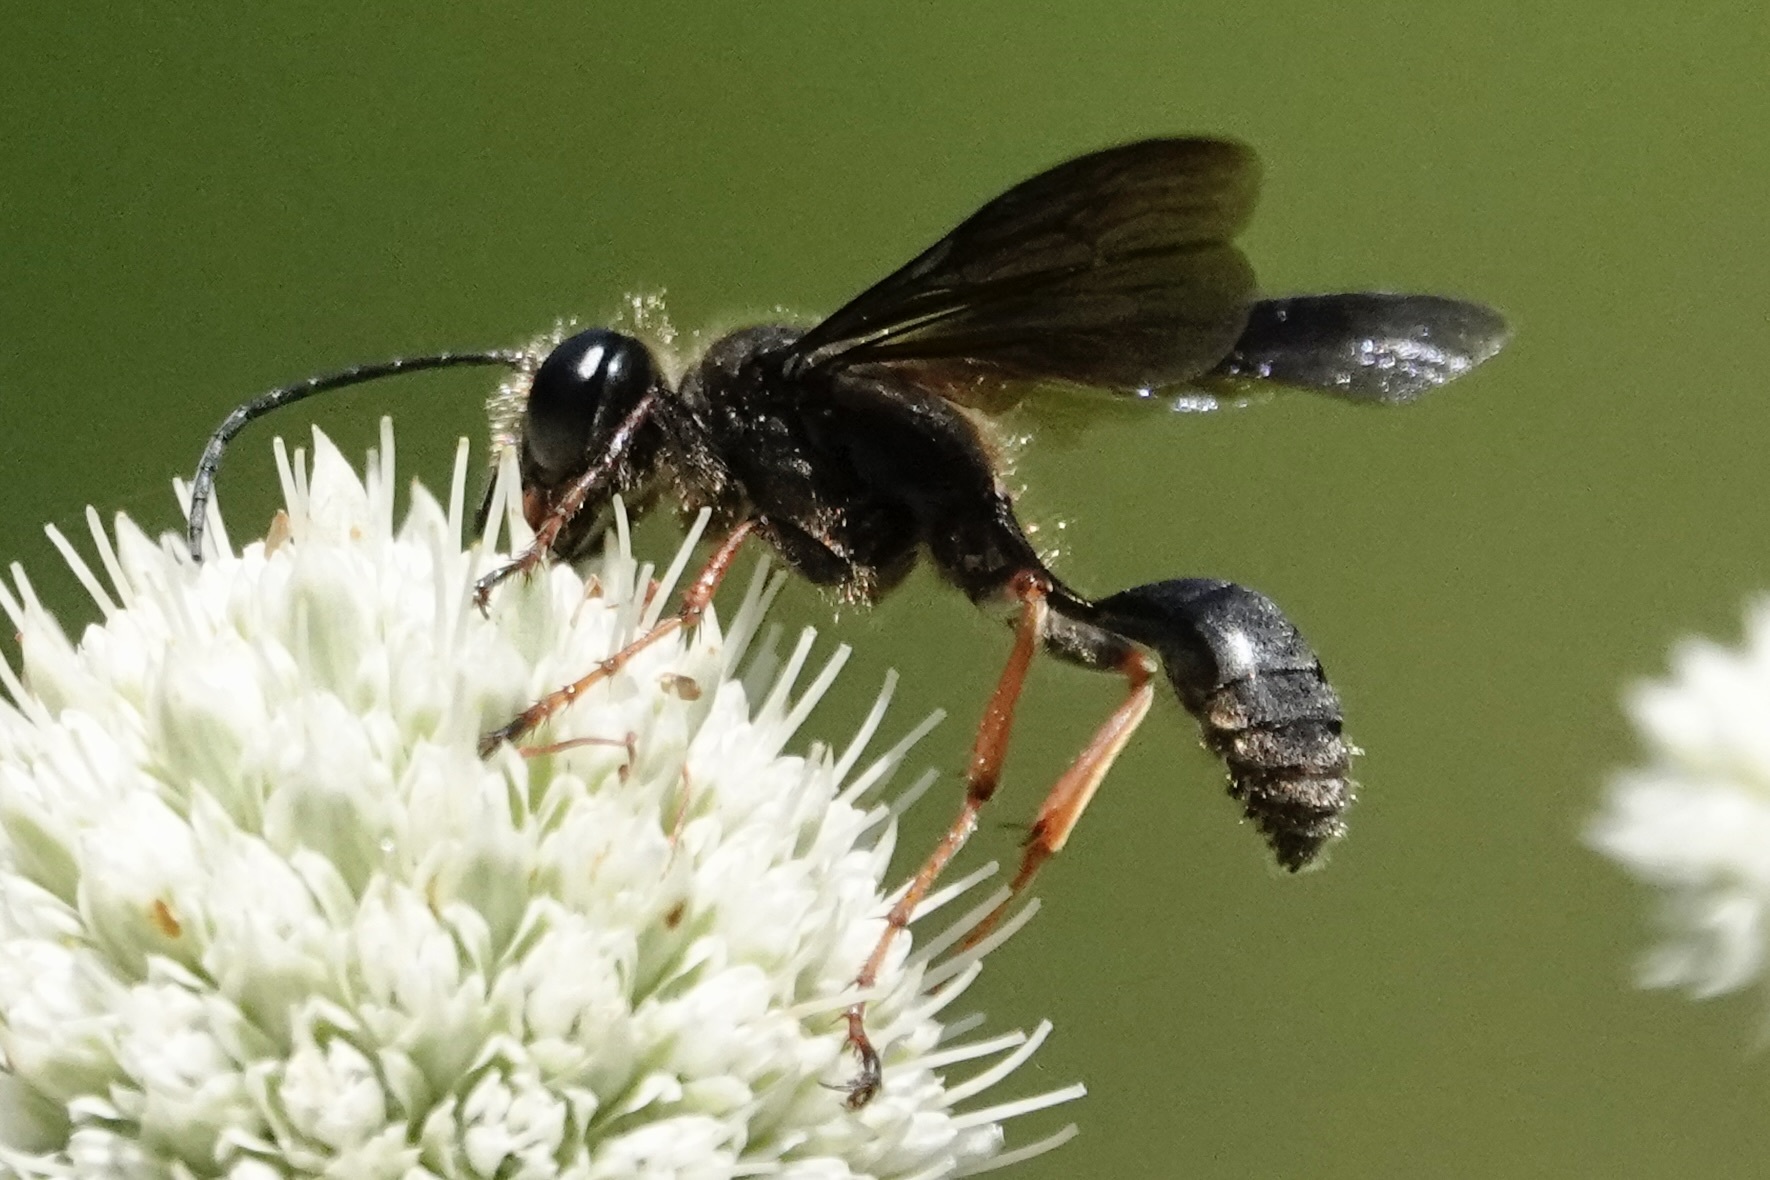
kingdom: Animalia
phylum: Arthropoda
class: Insecta
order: Hymenoptera
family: Sphecidae
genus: Isodontia
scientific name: Isodontia auripes
